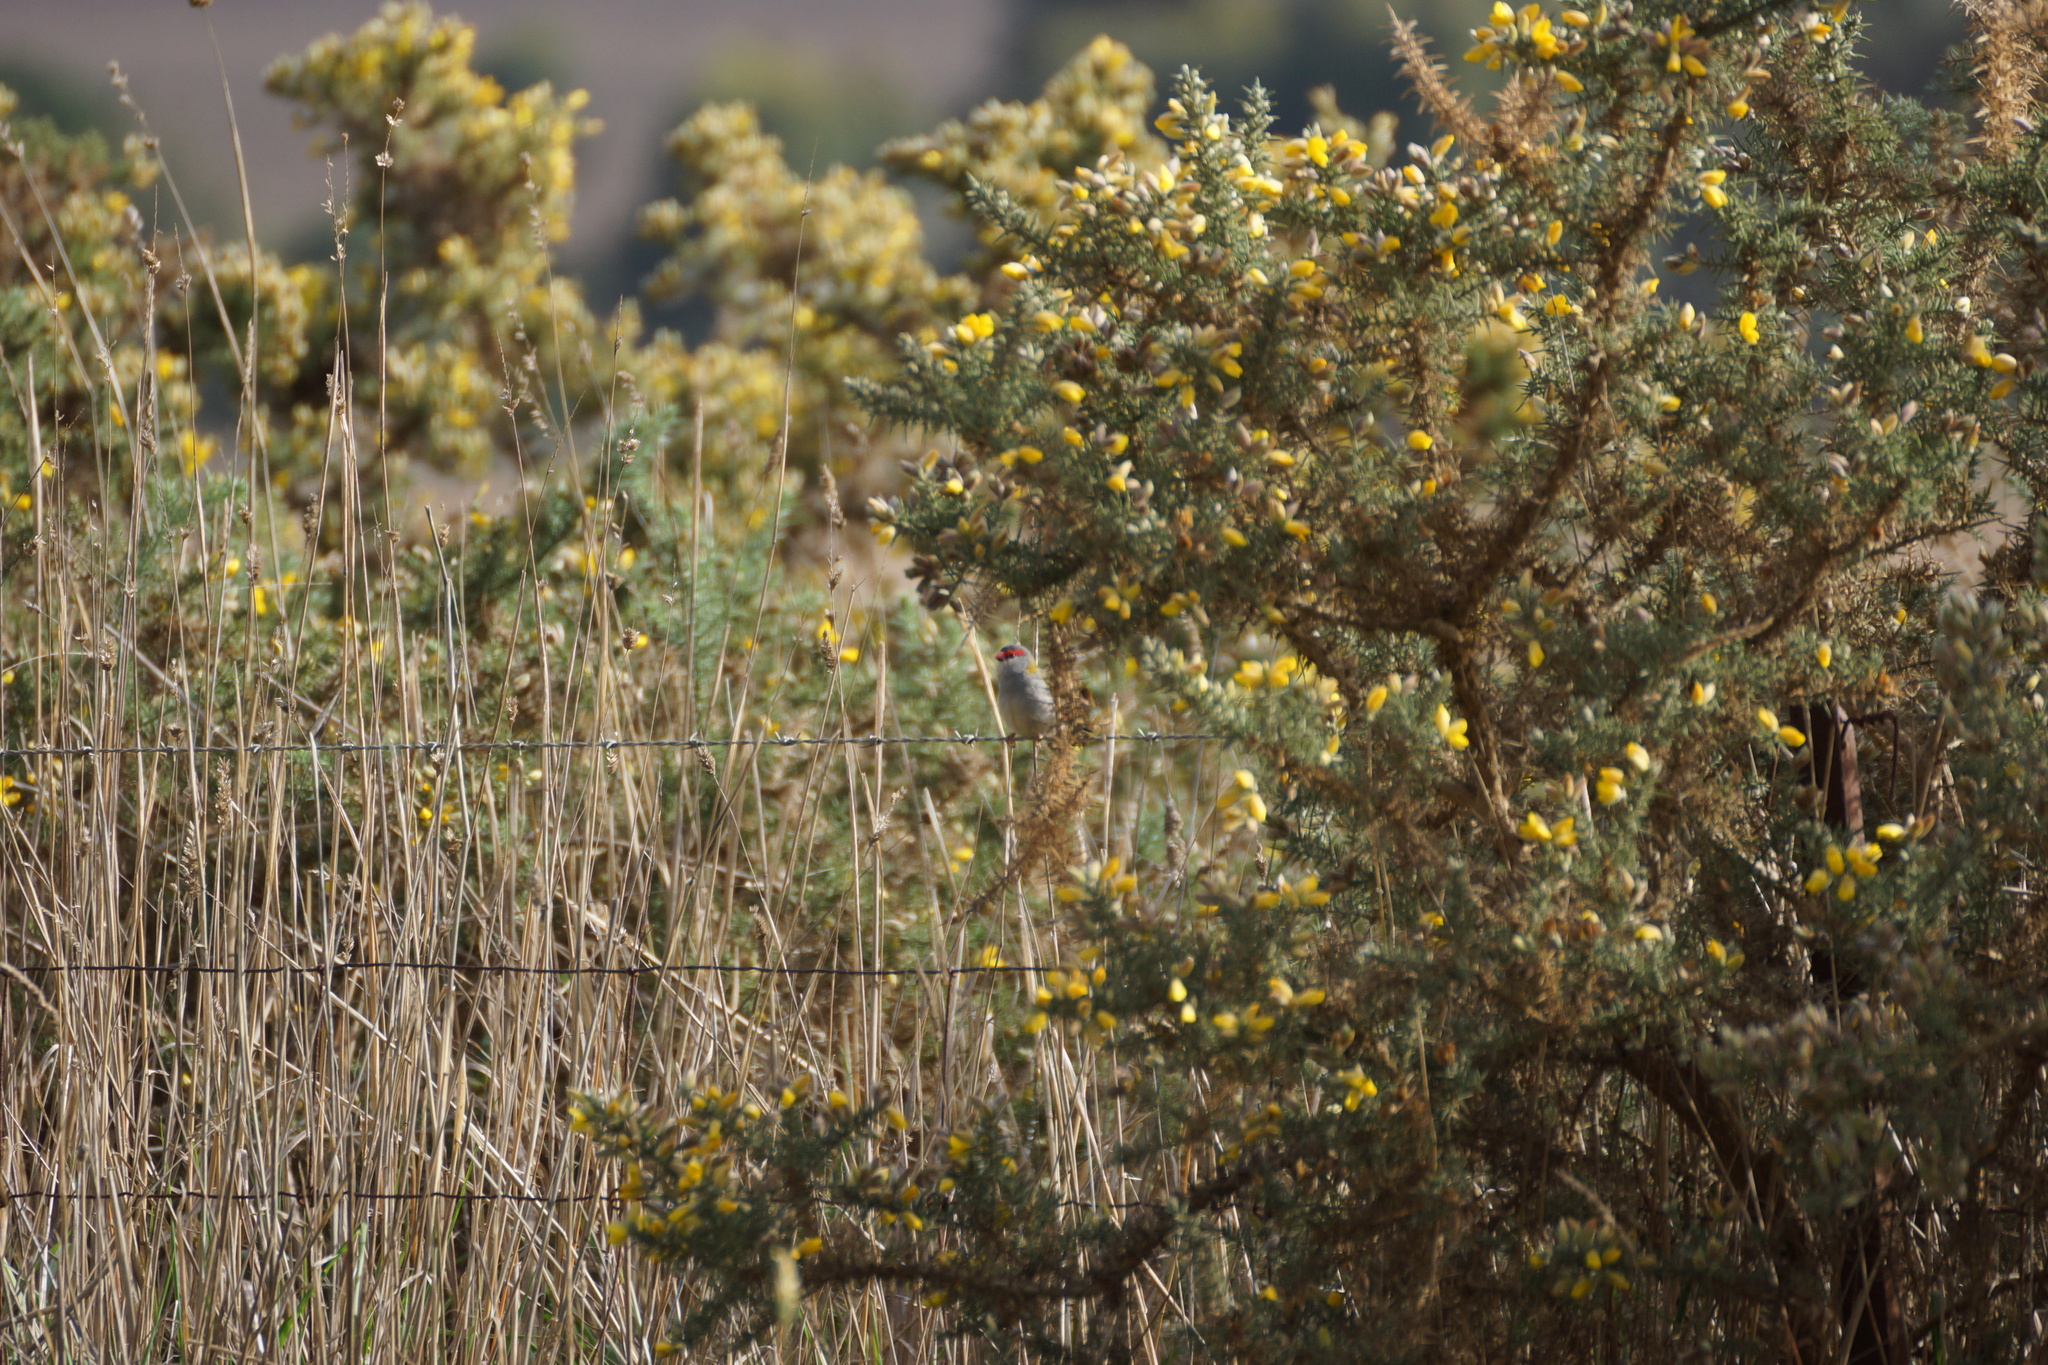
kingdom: Plantae
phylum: Tracheophyta
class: Magnoliopsida
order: Fabales
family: Fabaceae
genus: Ulex
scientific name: Ulex europaeus
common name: Common gorse
